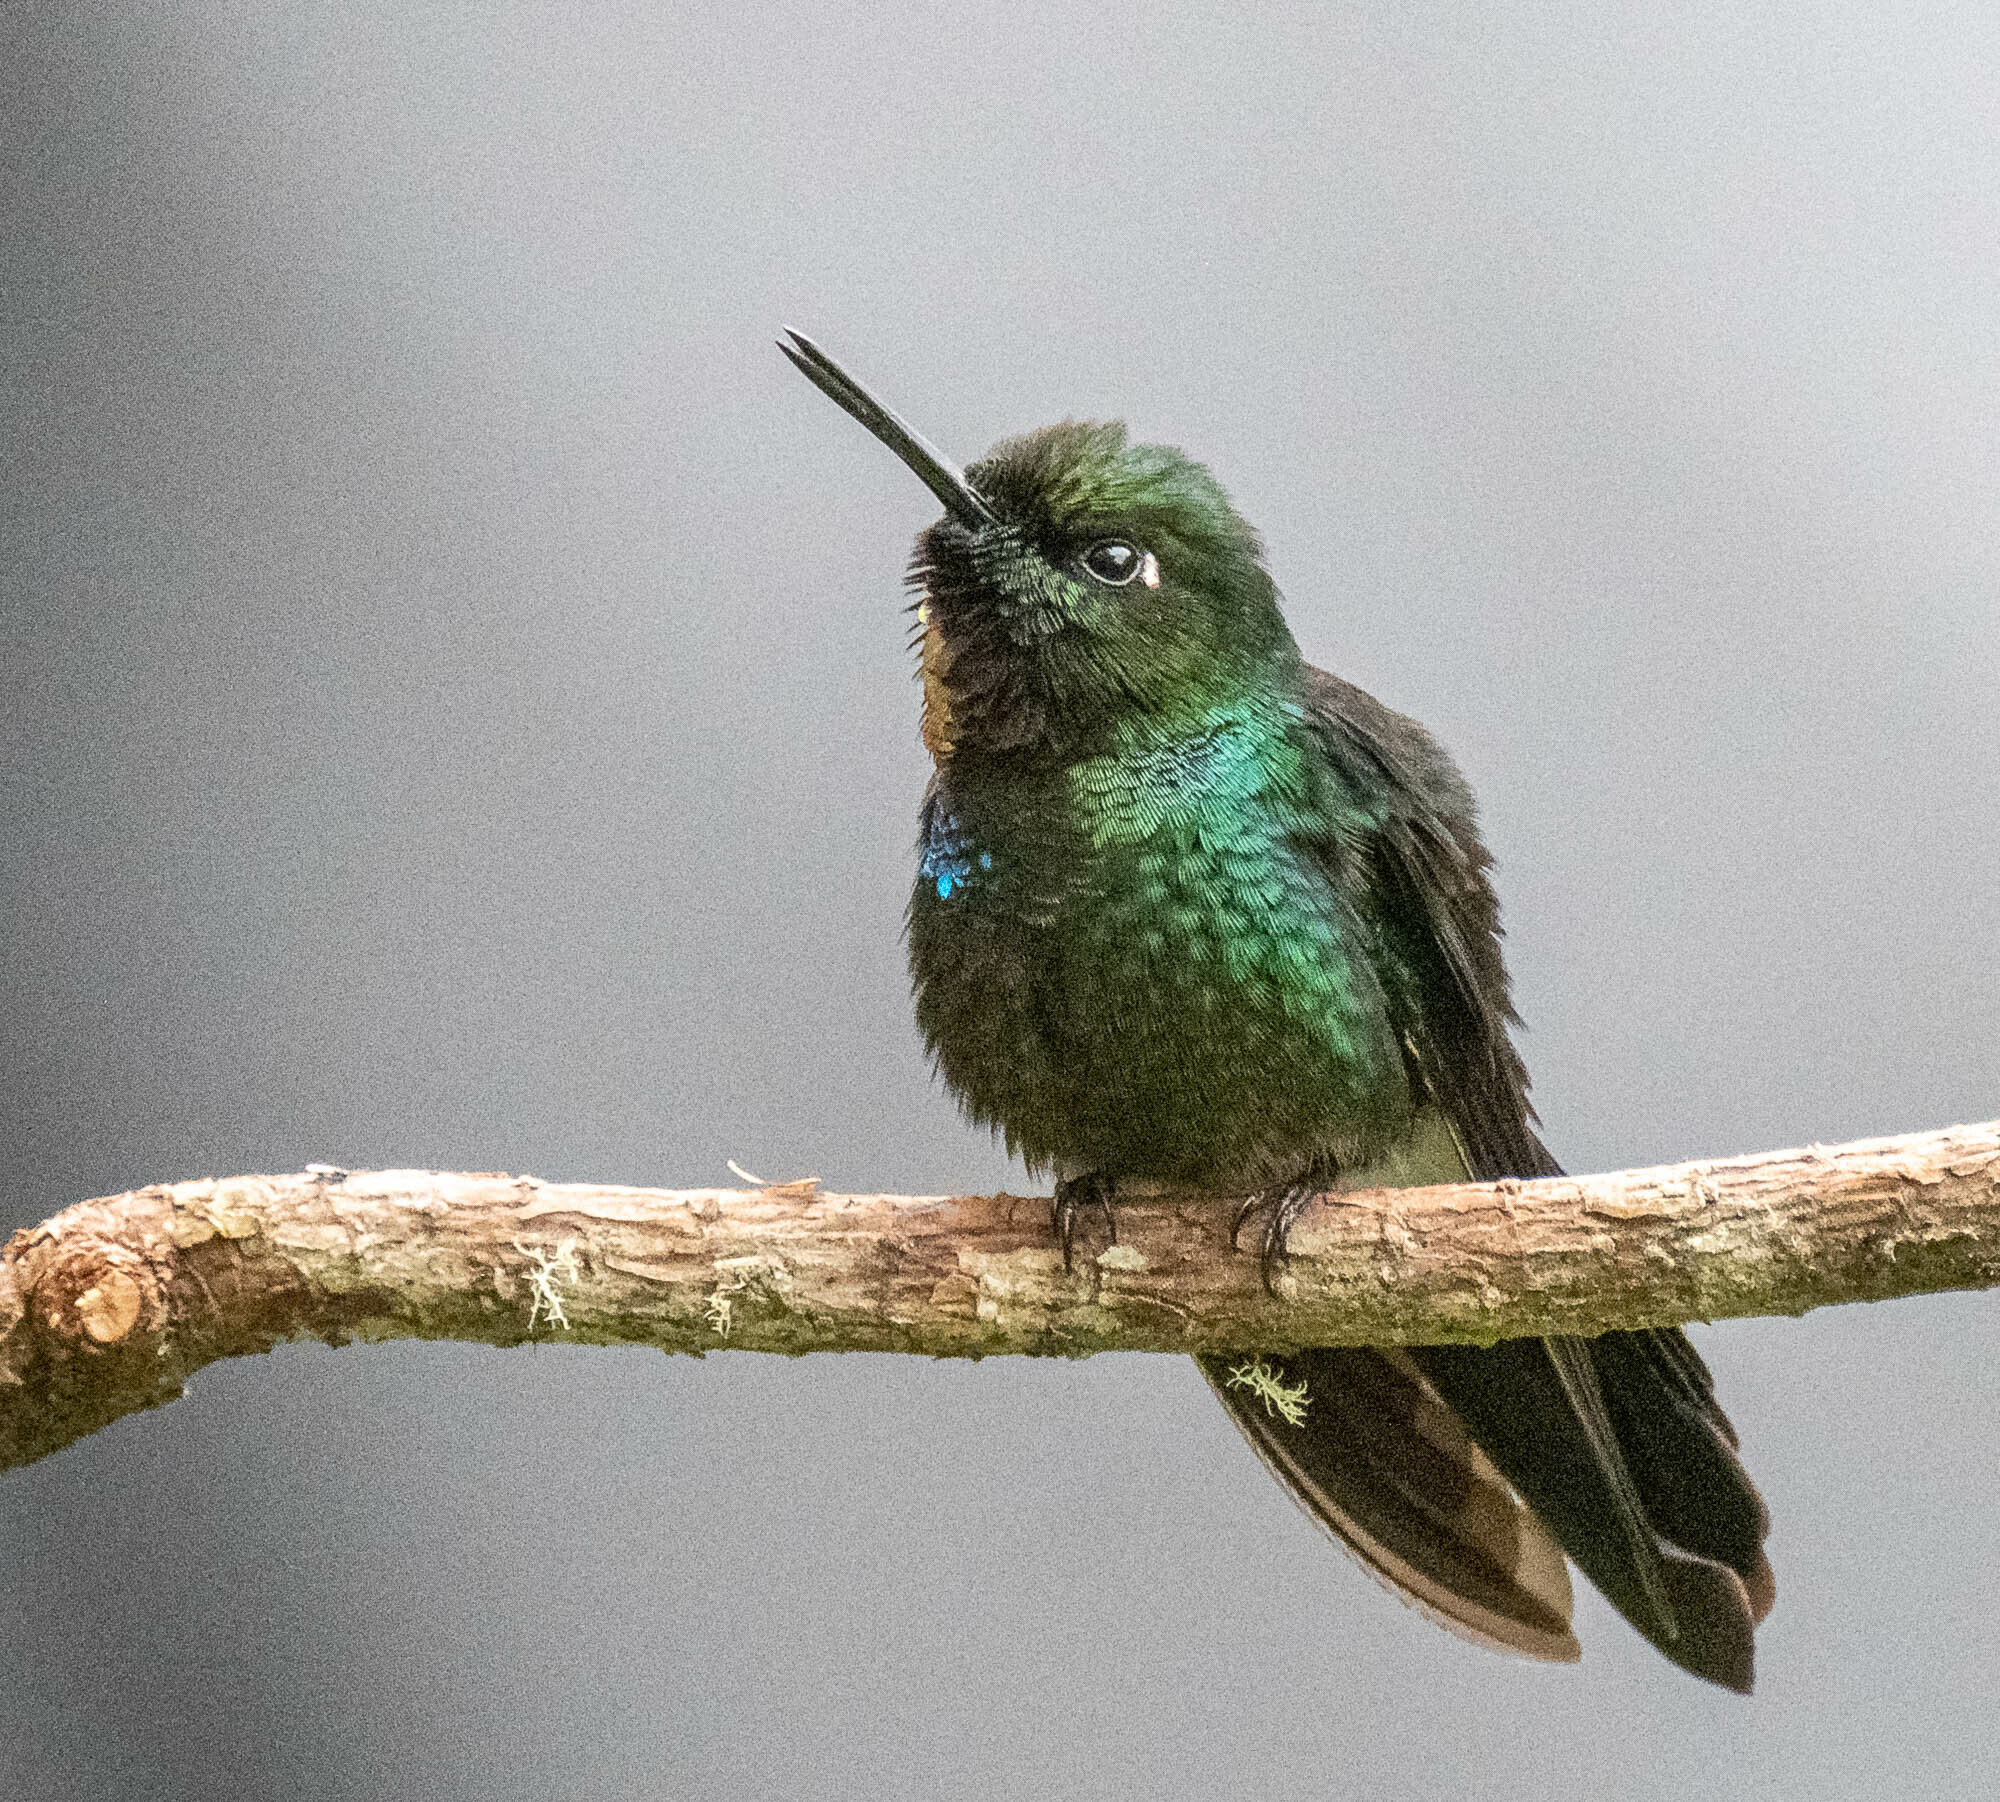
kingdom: Animalia
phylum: Chordata
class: Aves
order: Apodiformes
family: Trochilidae
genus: Heliangelus
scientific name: Heliangelus exortis
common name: Tourmaline sunangel
